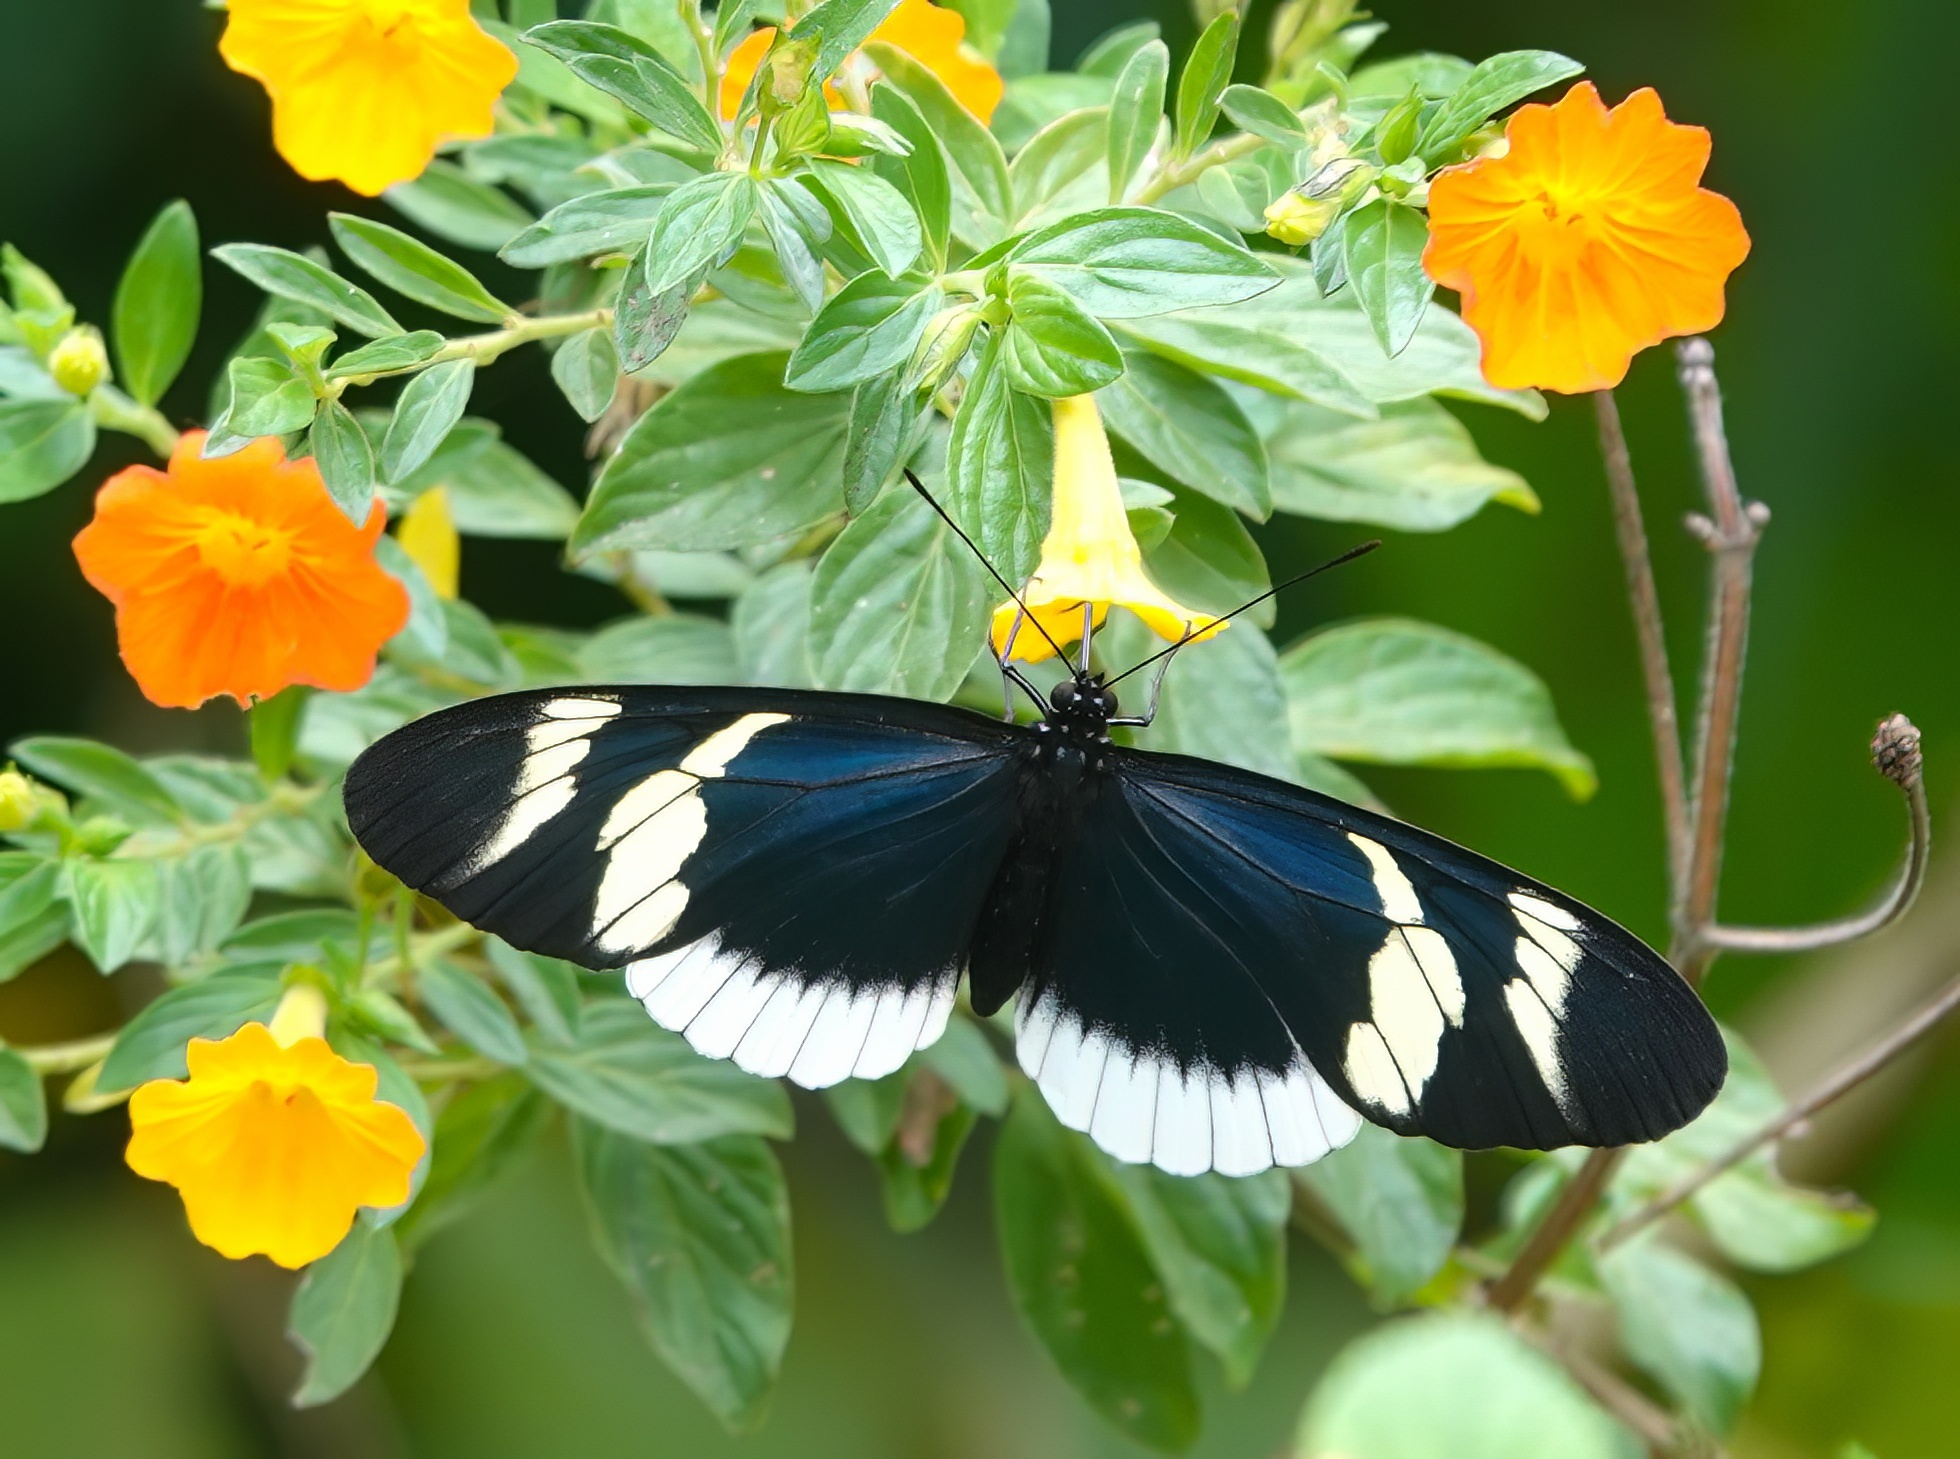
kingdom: Animalia
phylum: Arthropoda
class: Insecta
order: Lepidoptera
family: Nymphalidae
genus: Heliconius
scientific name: Heliconius eleuchia
